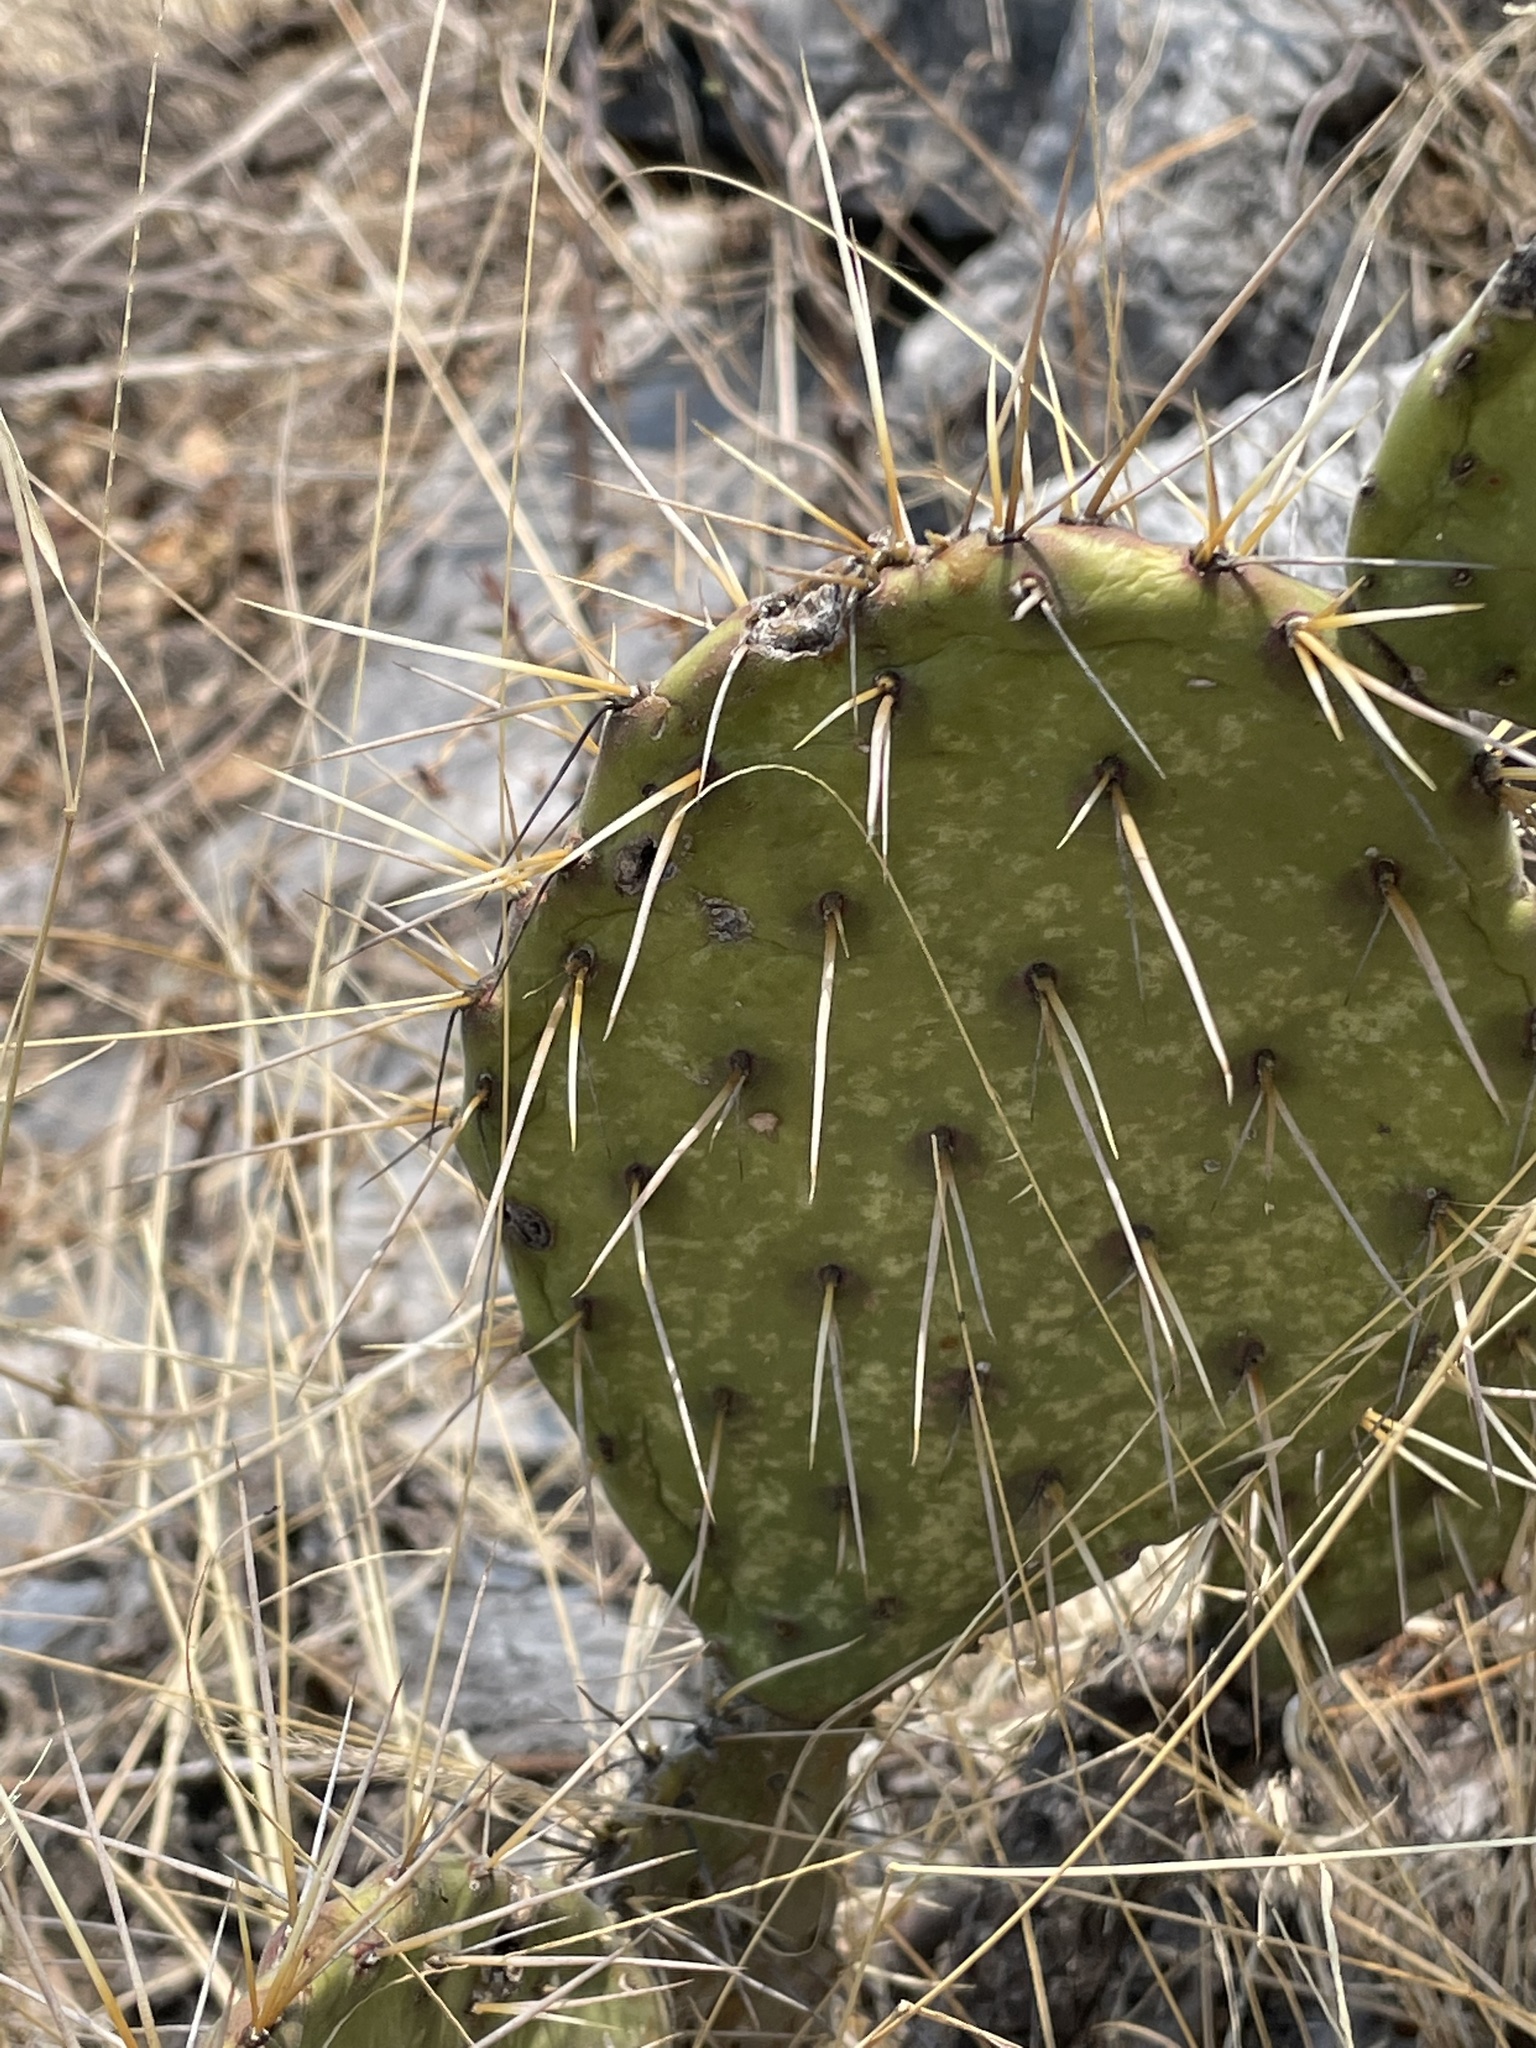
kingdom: Plantae
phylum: Tracheophyta
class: Magnoliopsida
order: Caryophyllales
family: Cactaceae
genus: Opuntia
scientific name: Opuntia depressa
